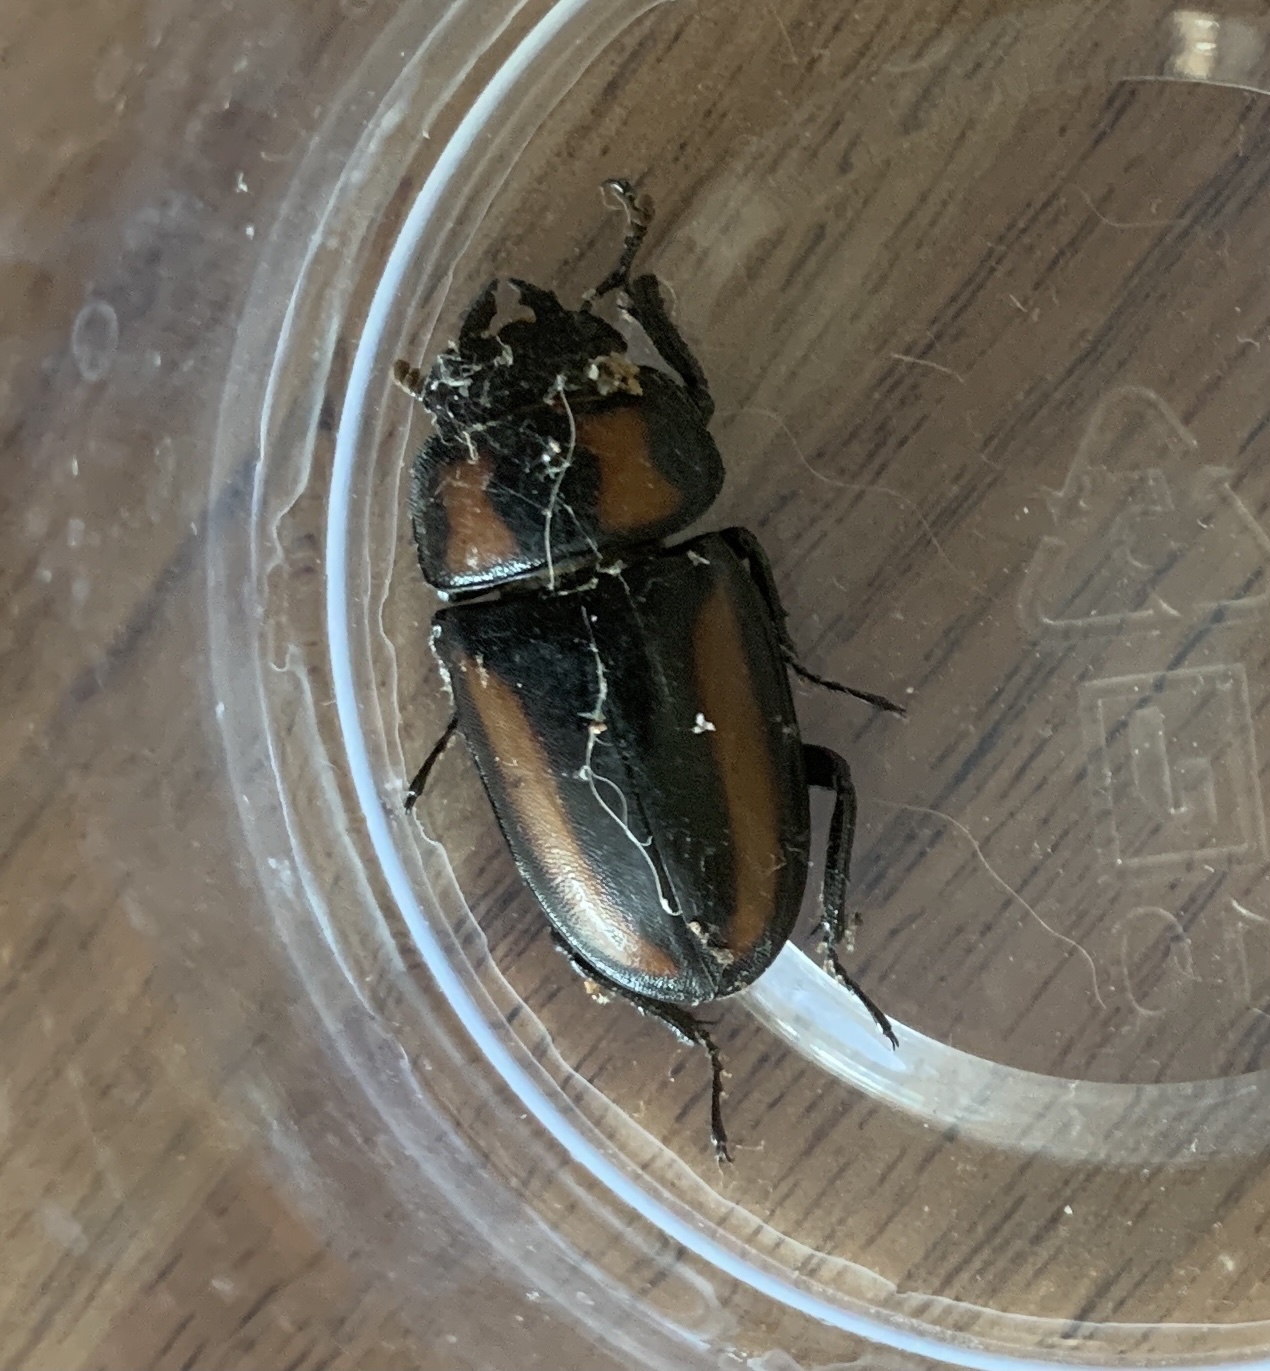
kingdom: Animalia
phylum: Arthropoda
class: Insecta
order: Coleoptera
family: Lucanidae
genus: Prosopocoilus
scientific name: Prosopocoilus biplagiatus
